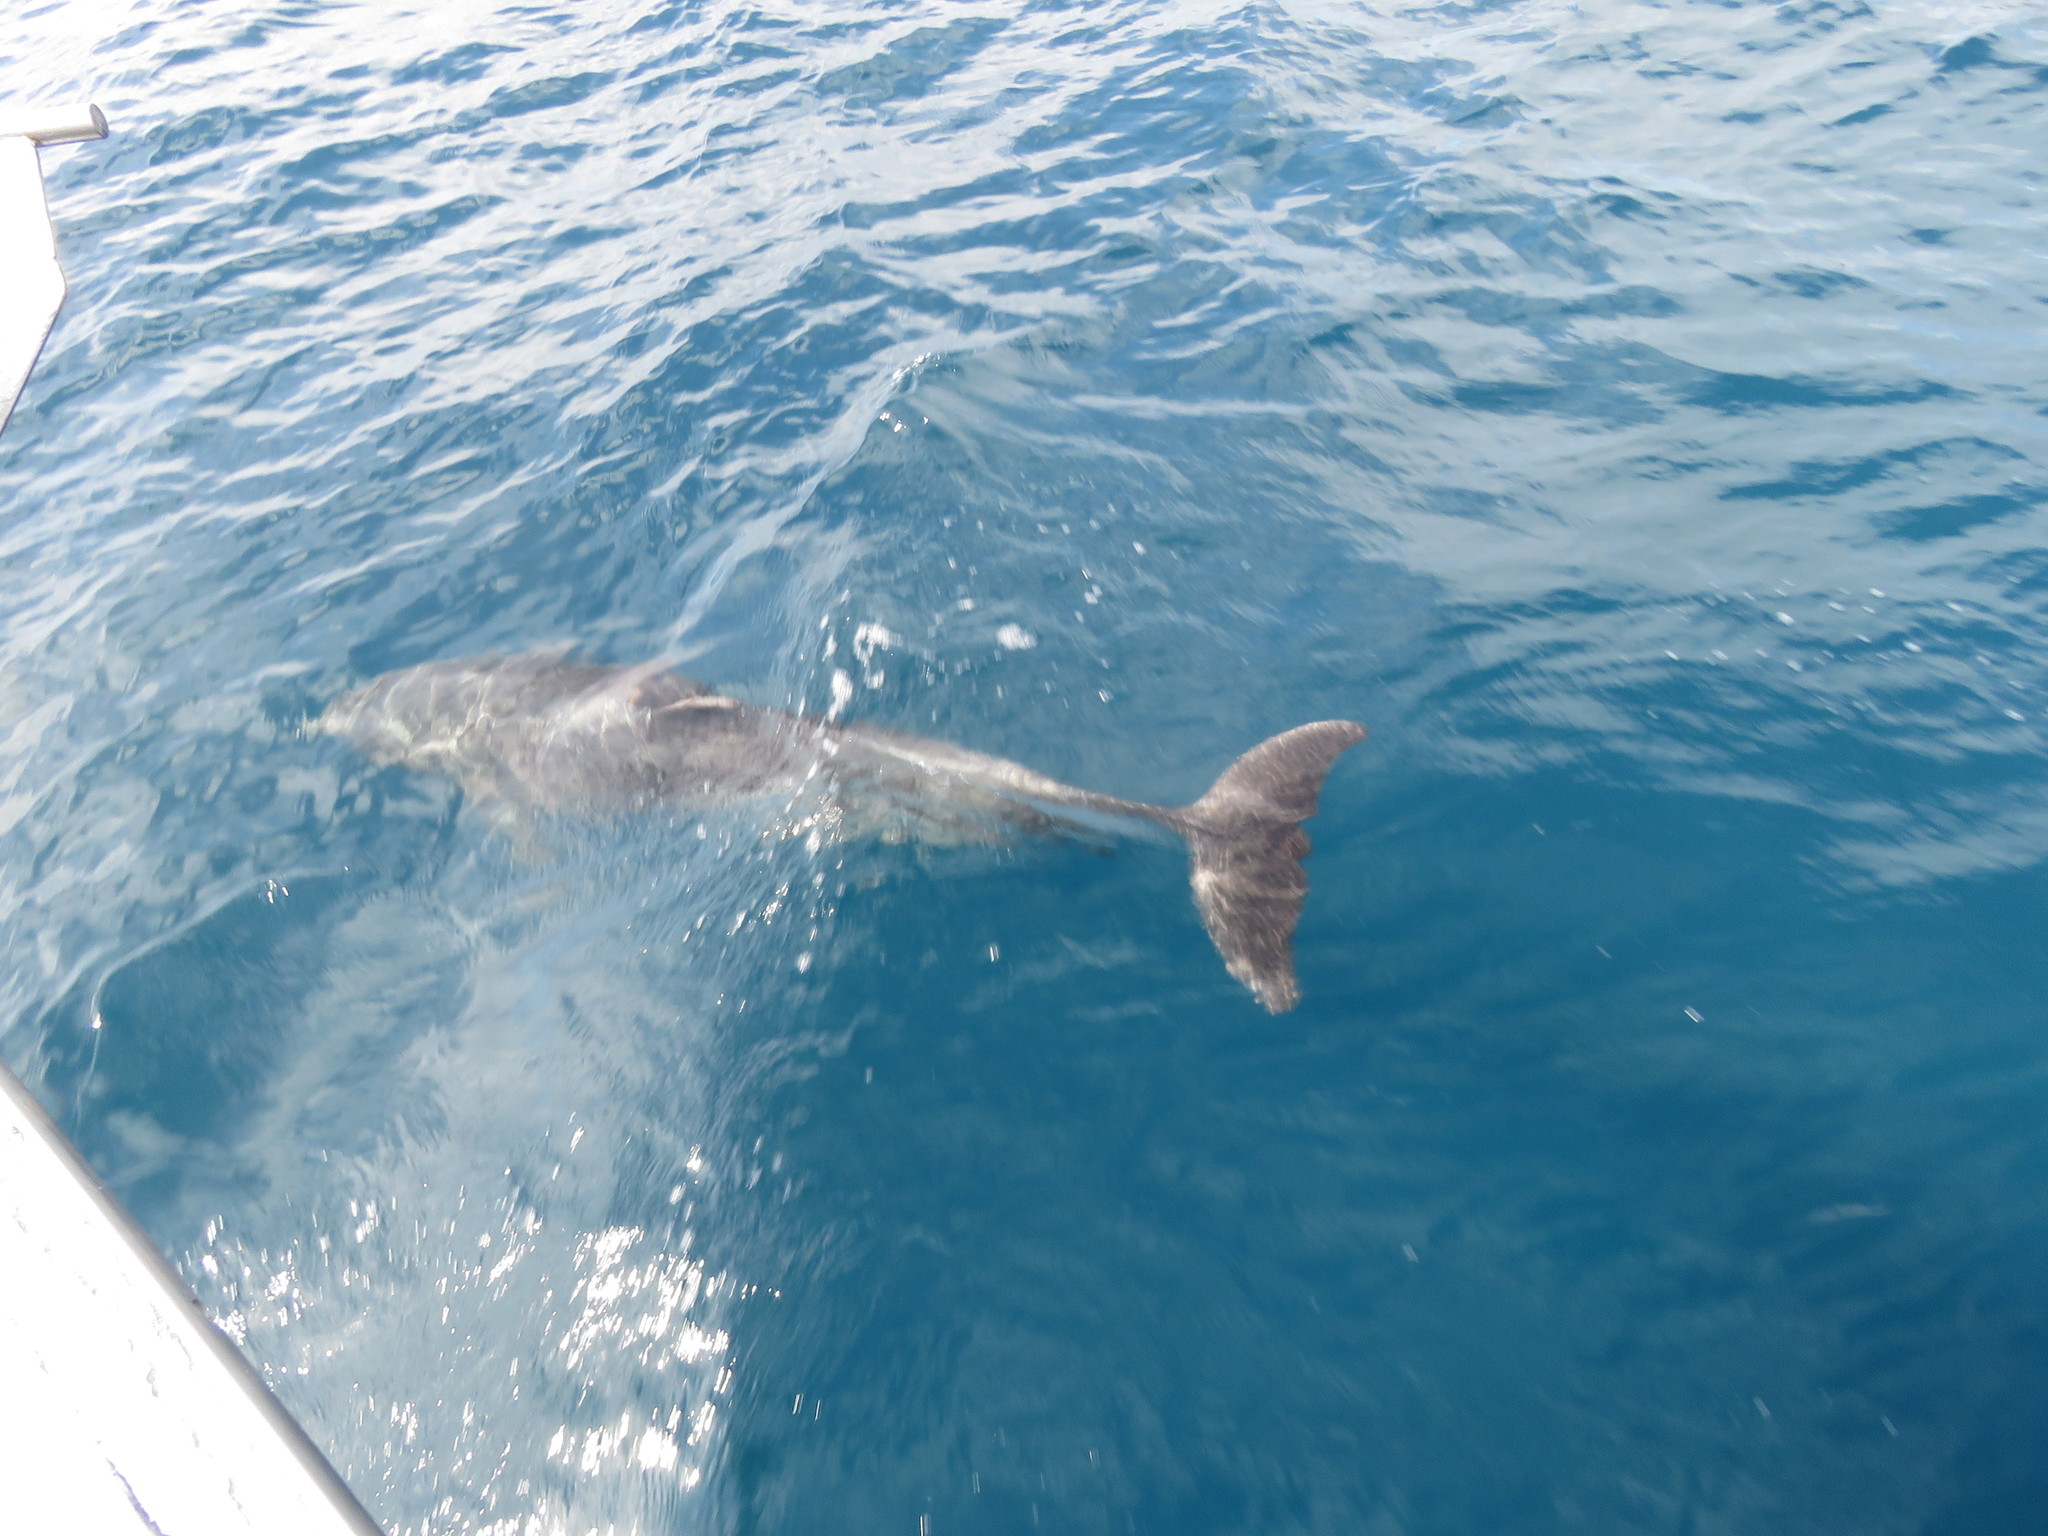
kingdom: Animalia
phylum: Chordata
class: Mammalia
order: Cetacea
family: Delphinidae
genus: Tursiops
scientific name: Tursiops truncatus
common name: Bottlenose dolphin
